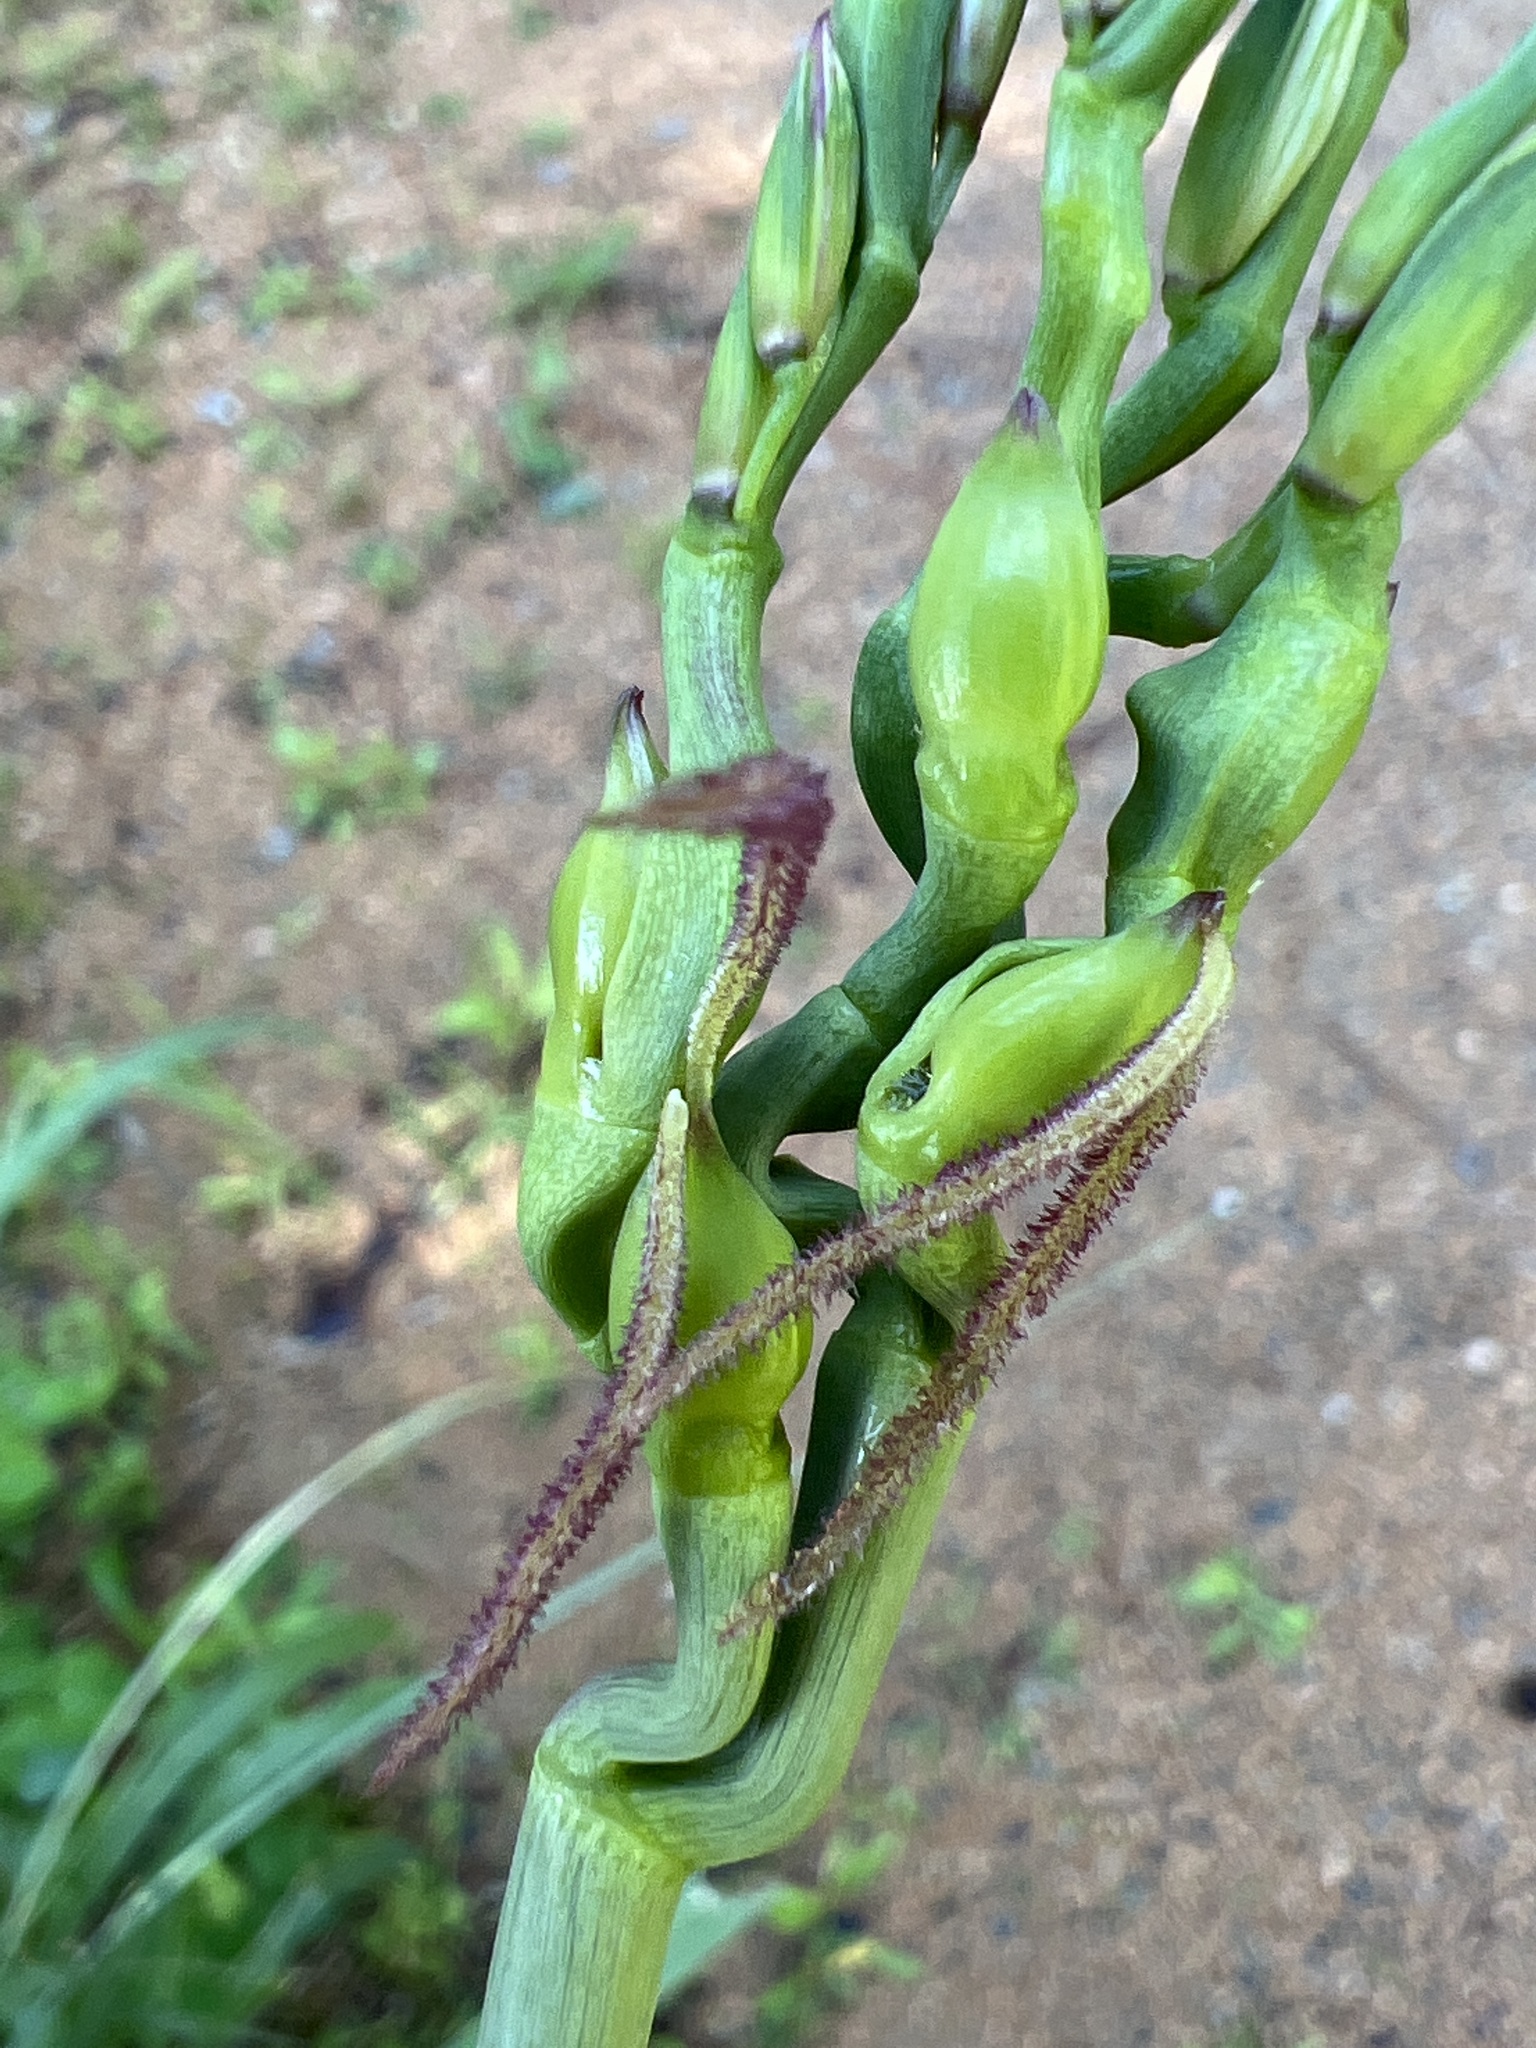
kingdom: Plantae
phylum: Tracheophyta
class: Liliopsida
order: Poales
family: Poaceae
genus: Tripsacum
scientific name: Tripsacum dactyloides
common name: Buffalo-grass
